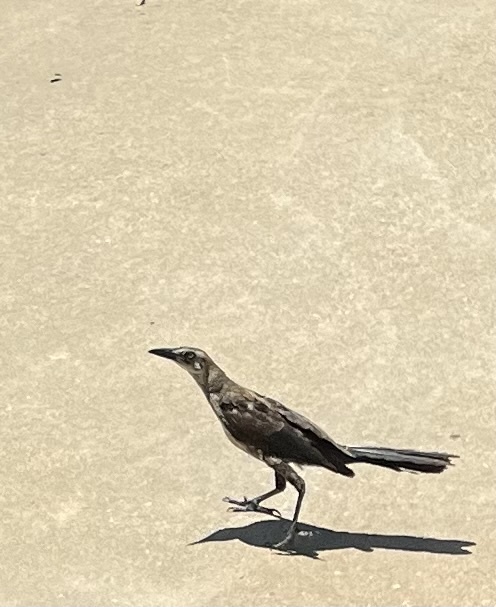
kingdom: Animalia
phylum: Chordata
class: Aves
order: Passeriformes
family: Icteridae
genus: Quiscalus
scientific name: Quiscalus mexicanus
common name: Great-tailed grackle
